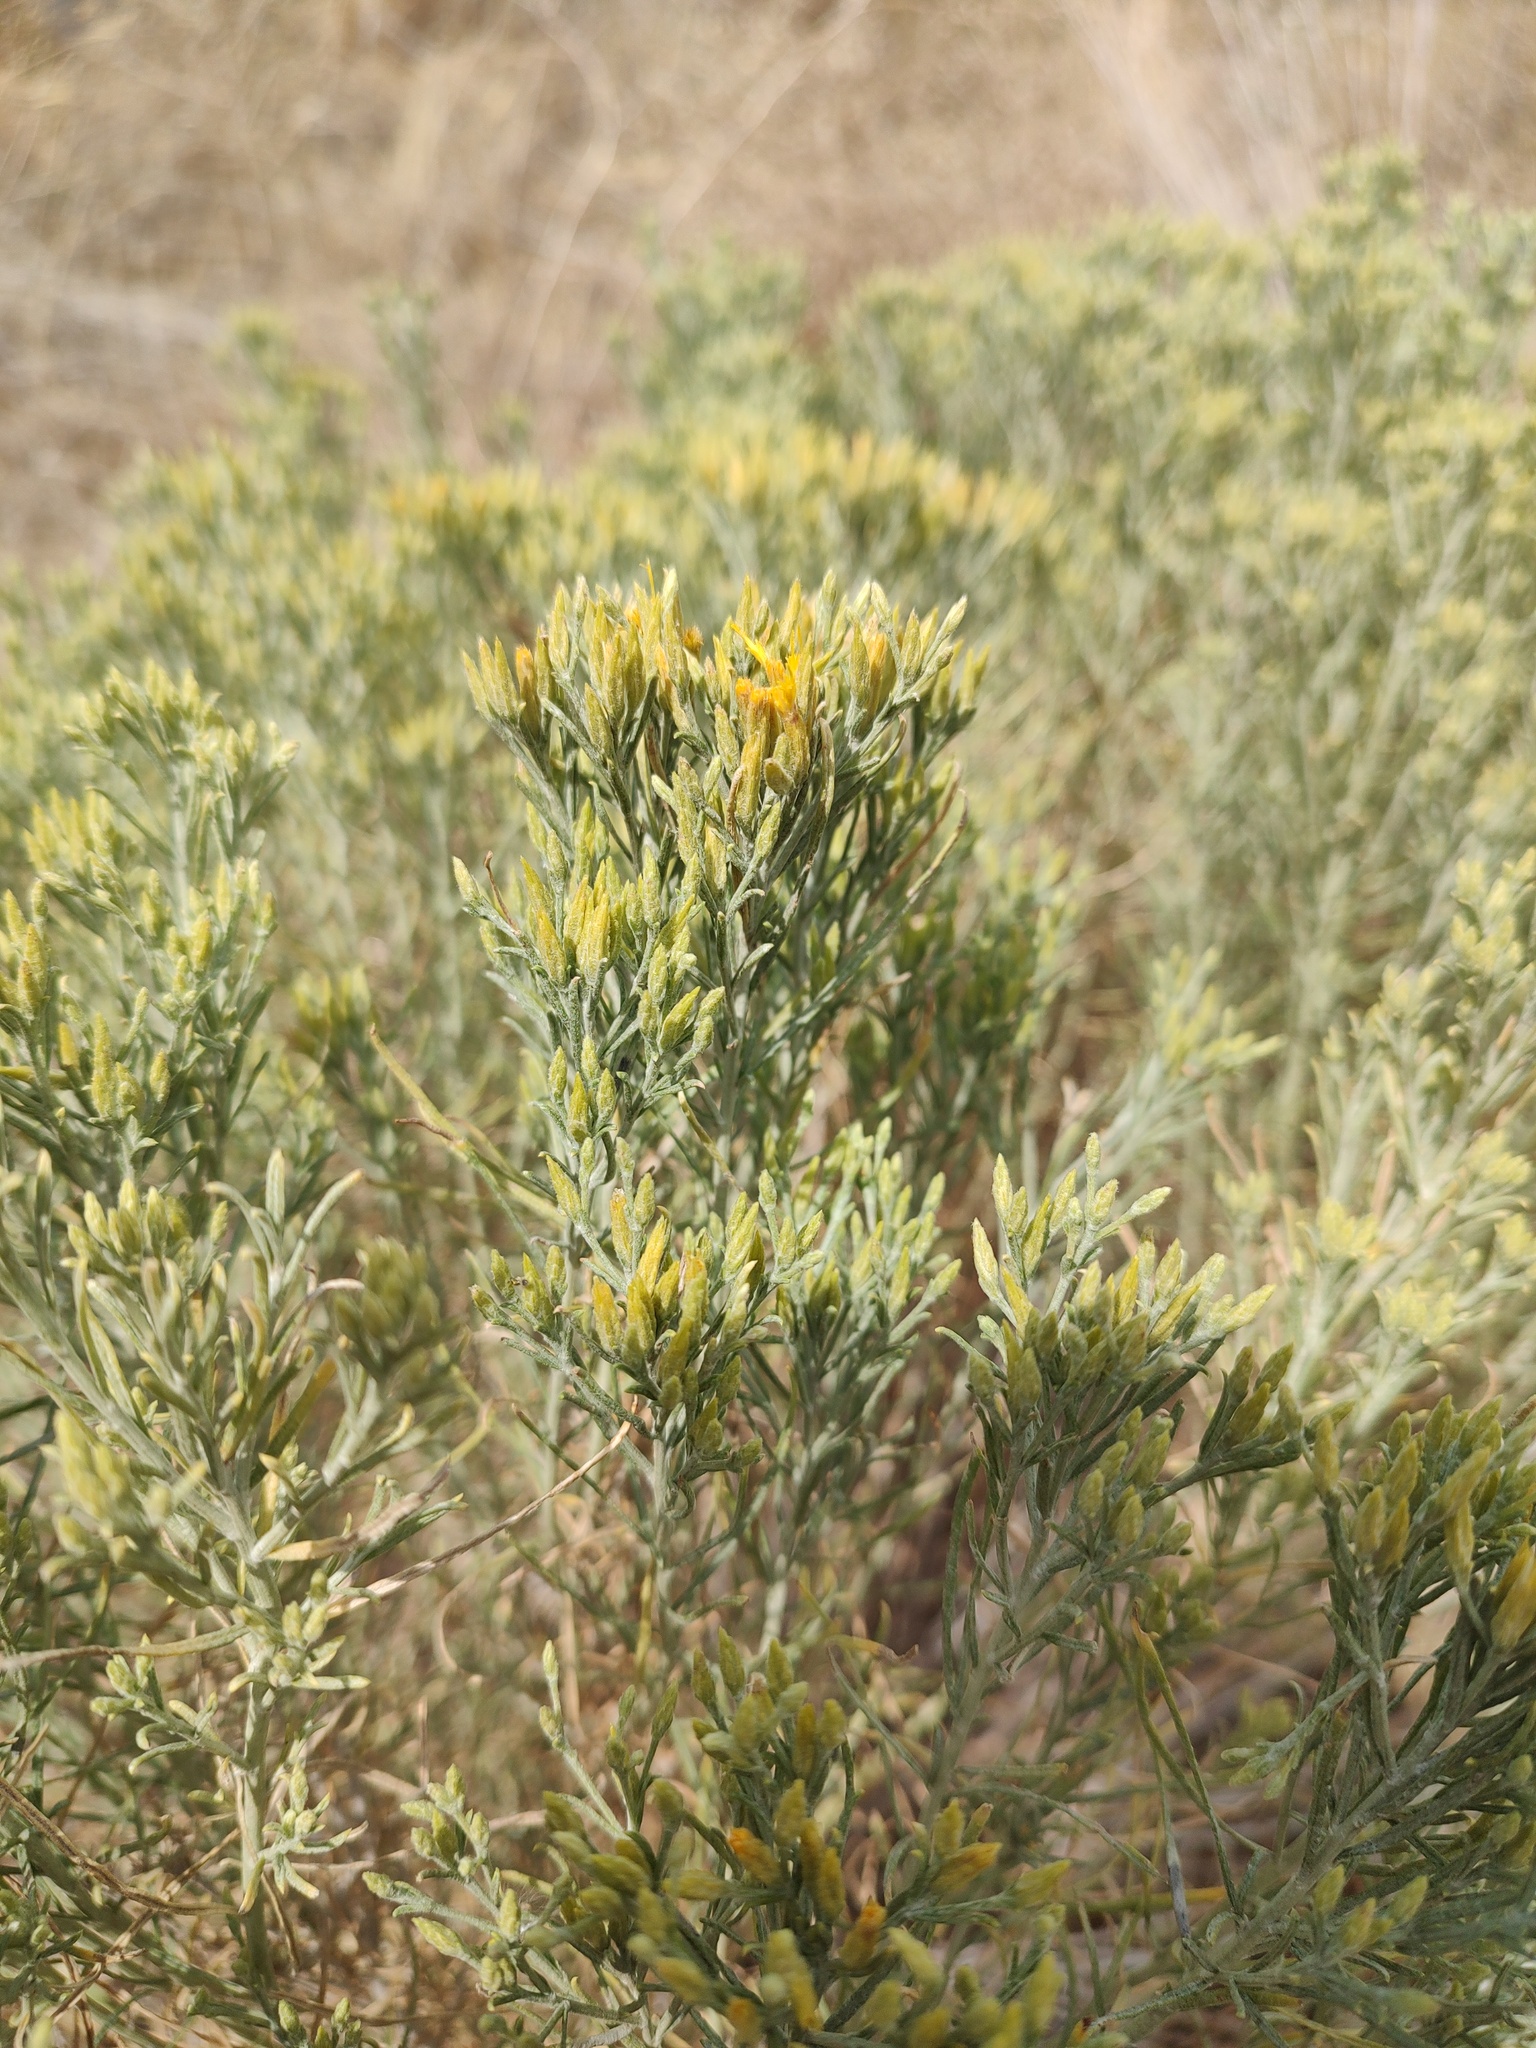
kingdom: Plantae
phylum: Tracheophyta
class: Magnoliopsida
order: Asterales
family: Asteraceae
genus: Ericameria
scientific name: Ericameria nauseosa
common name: Rubber rabbitbrush
